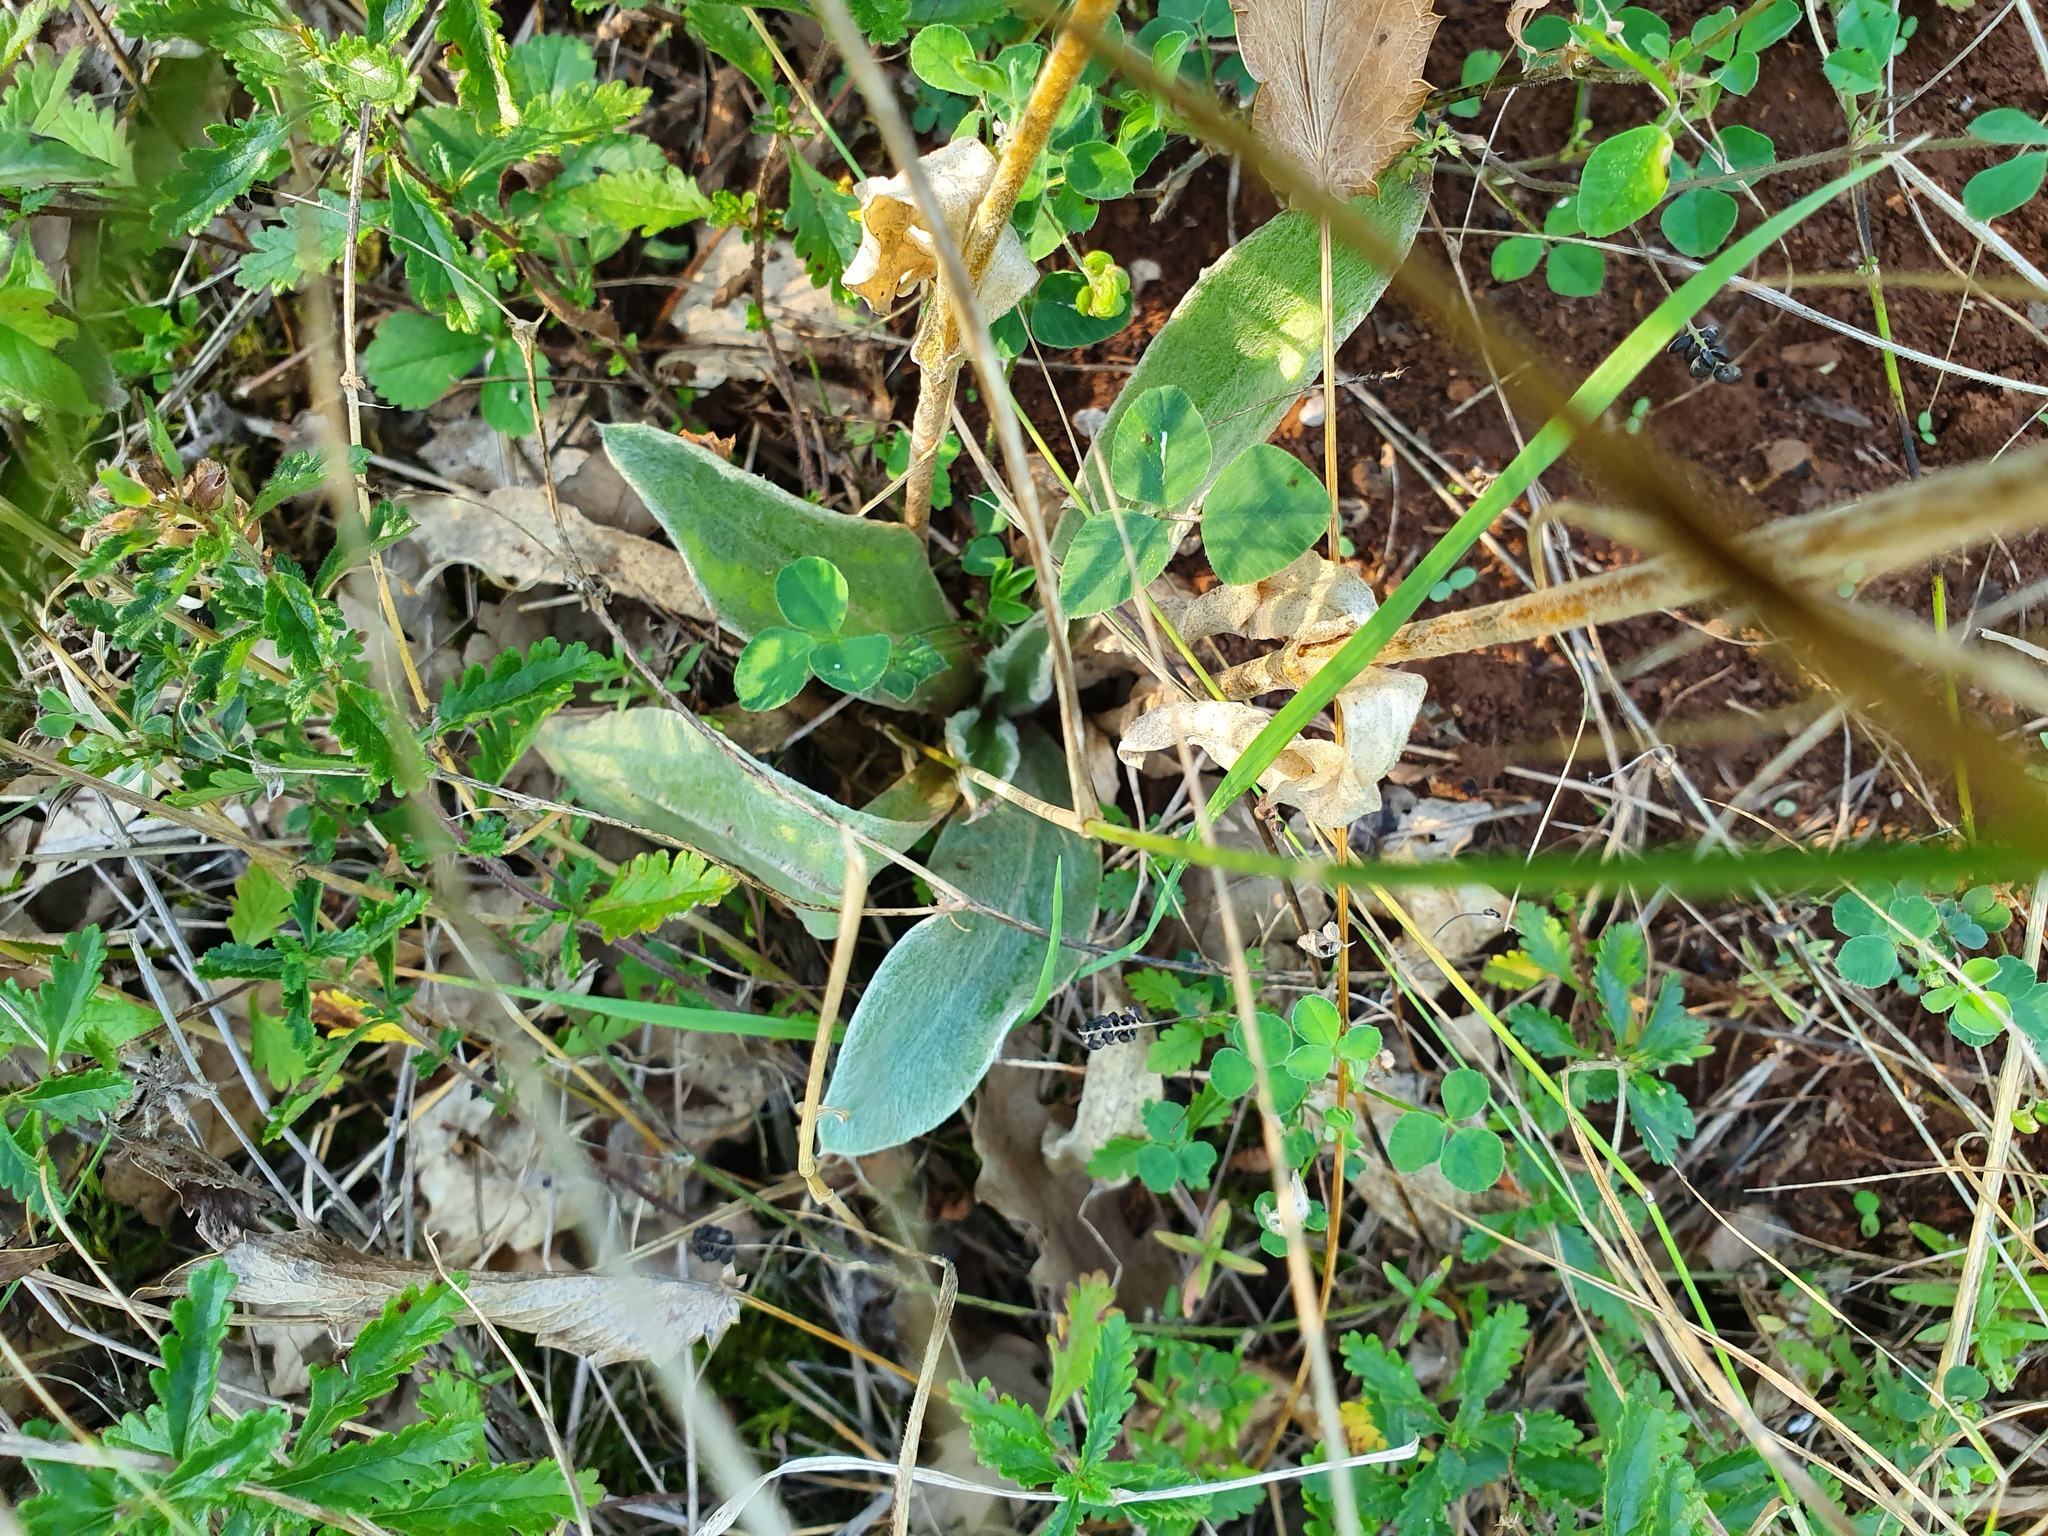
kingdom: Plantae
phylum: Tracheophyta
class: Magnoliopsida
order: Caryophyllales
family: Caryophyllaceae
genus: Silene
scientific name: Silene coronaria
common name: Rose campion
